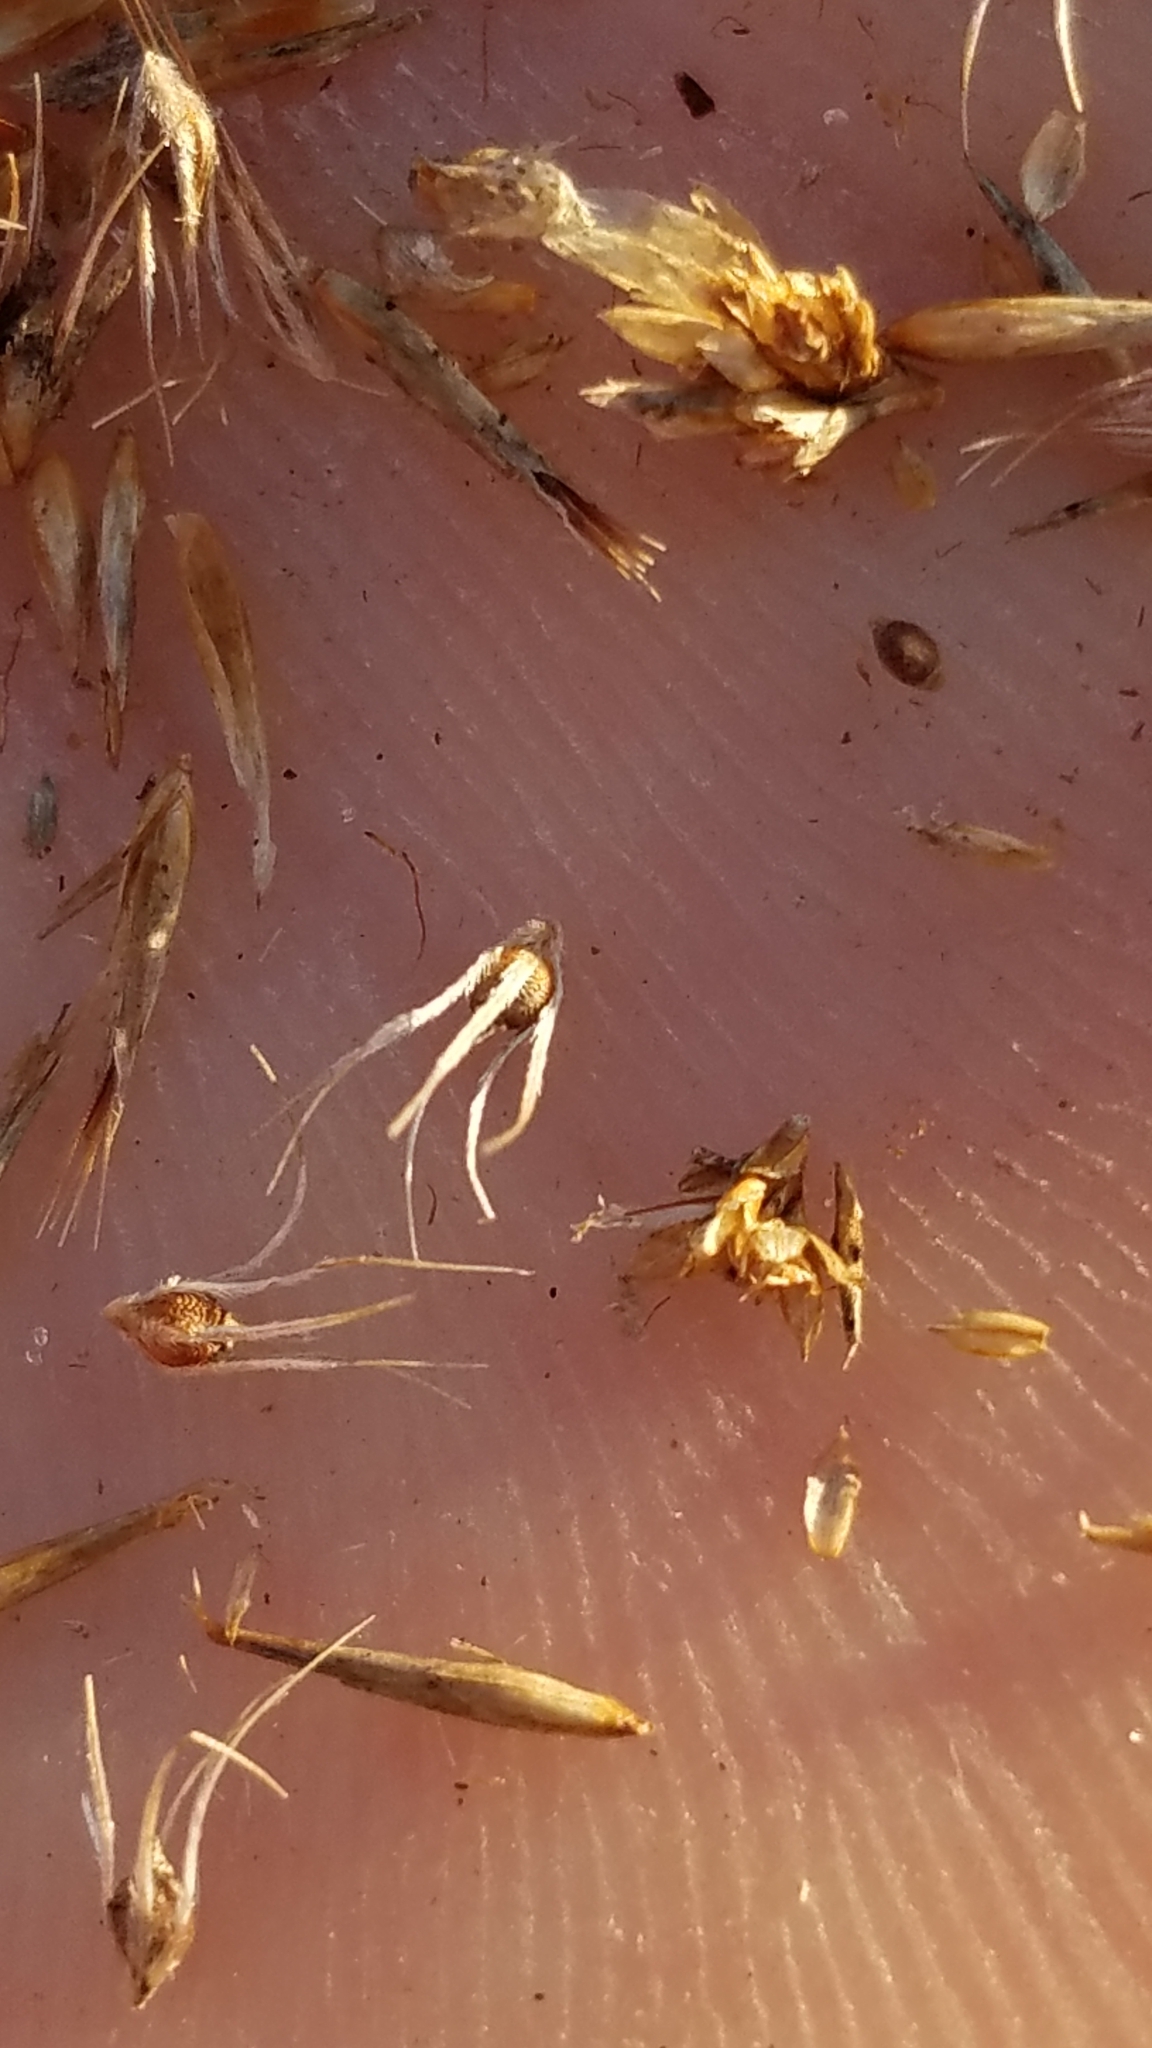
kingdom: Plantae
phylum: Tracheophyta
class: Liliopsida
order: Poales
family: Cyperaceae
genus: Rhynchospora
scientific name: Rhynchospora megaplumosa
